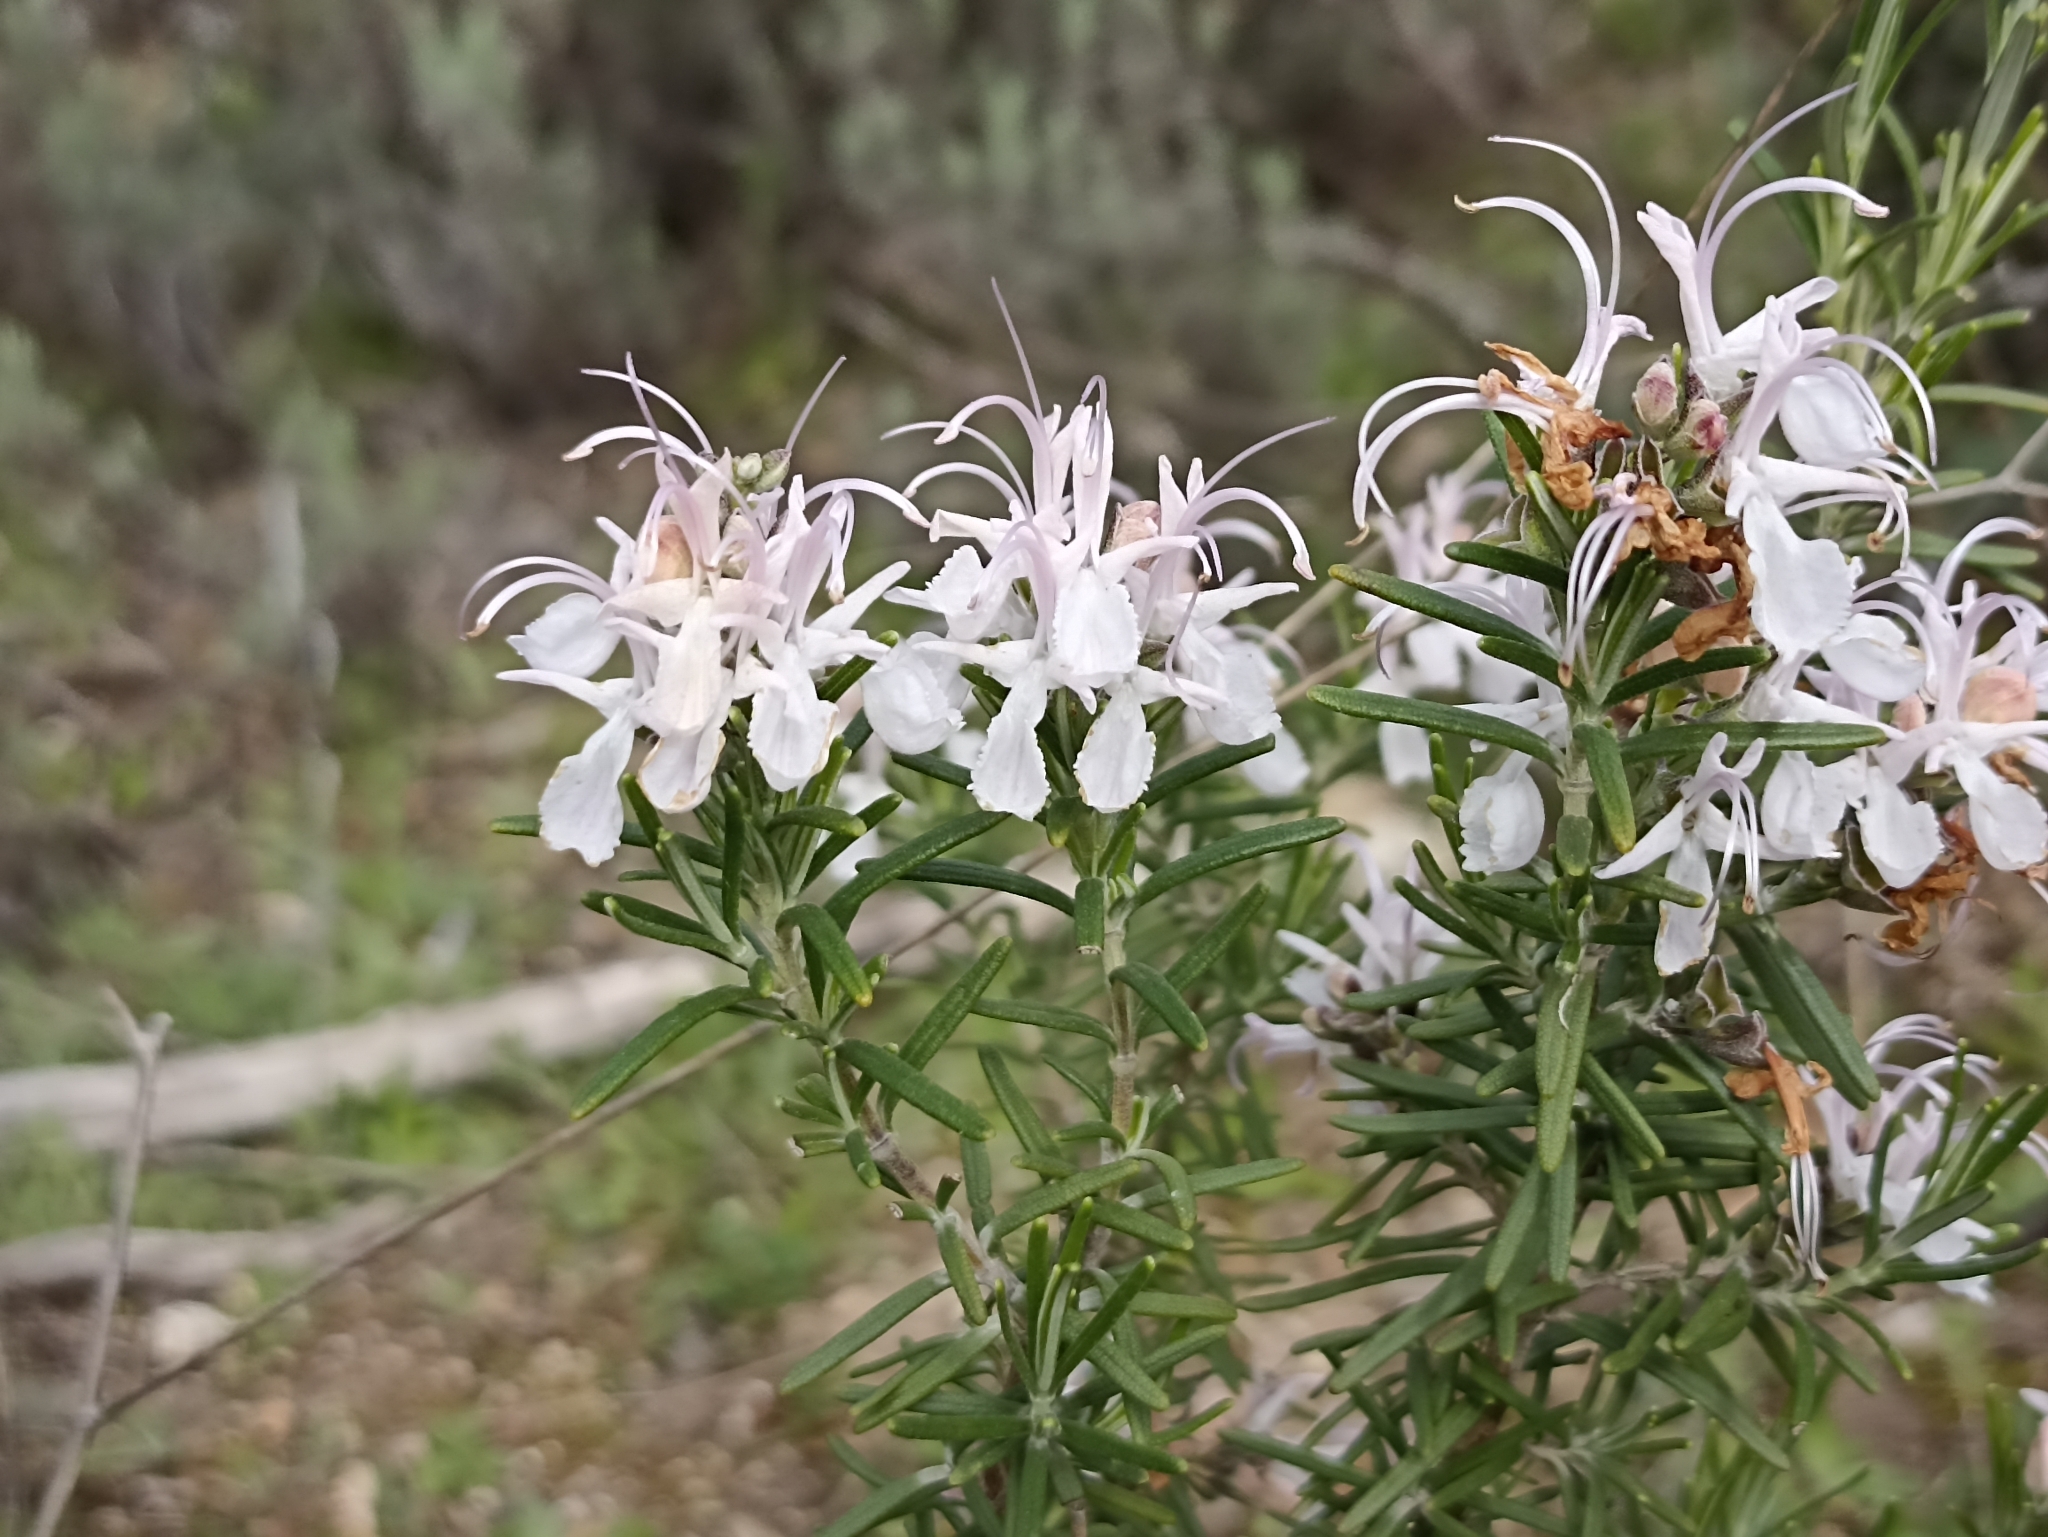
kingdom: Plantae
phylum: Tracheophyta
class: Magnoliopsida
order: Lamiales
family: Lamiaceae
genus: Salvia
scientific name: Salvia rosmarinus
